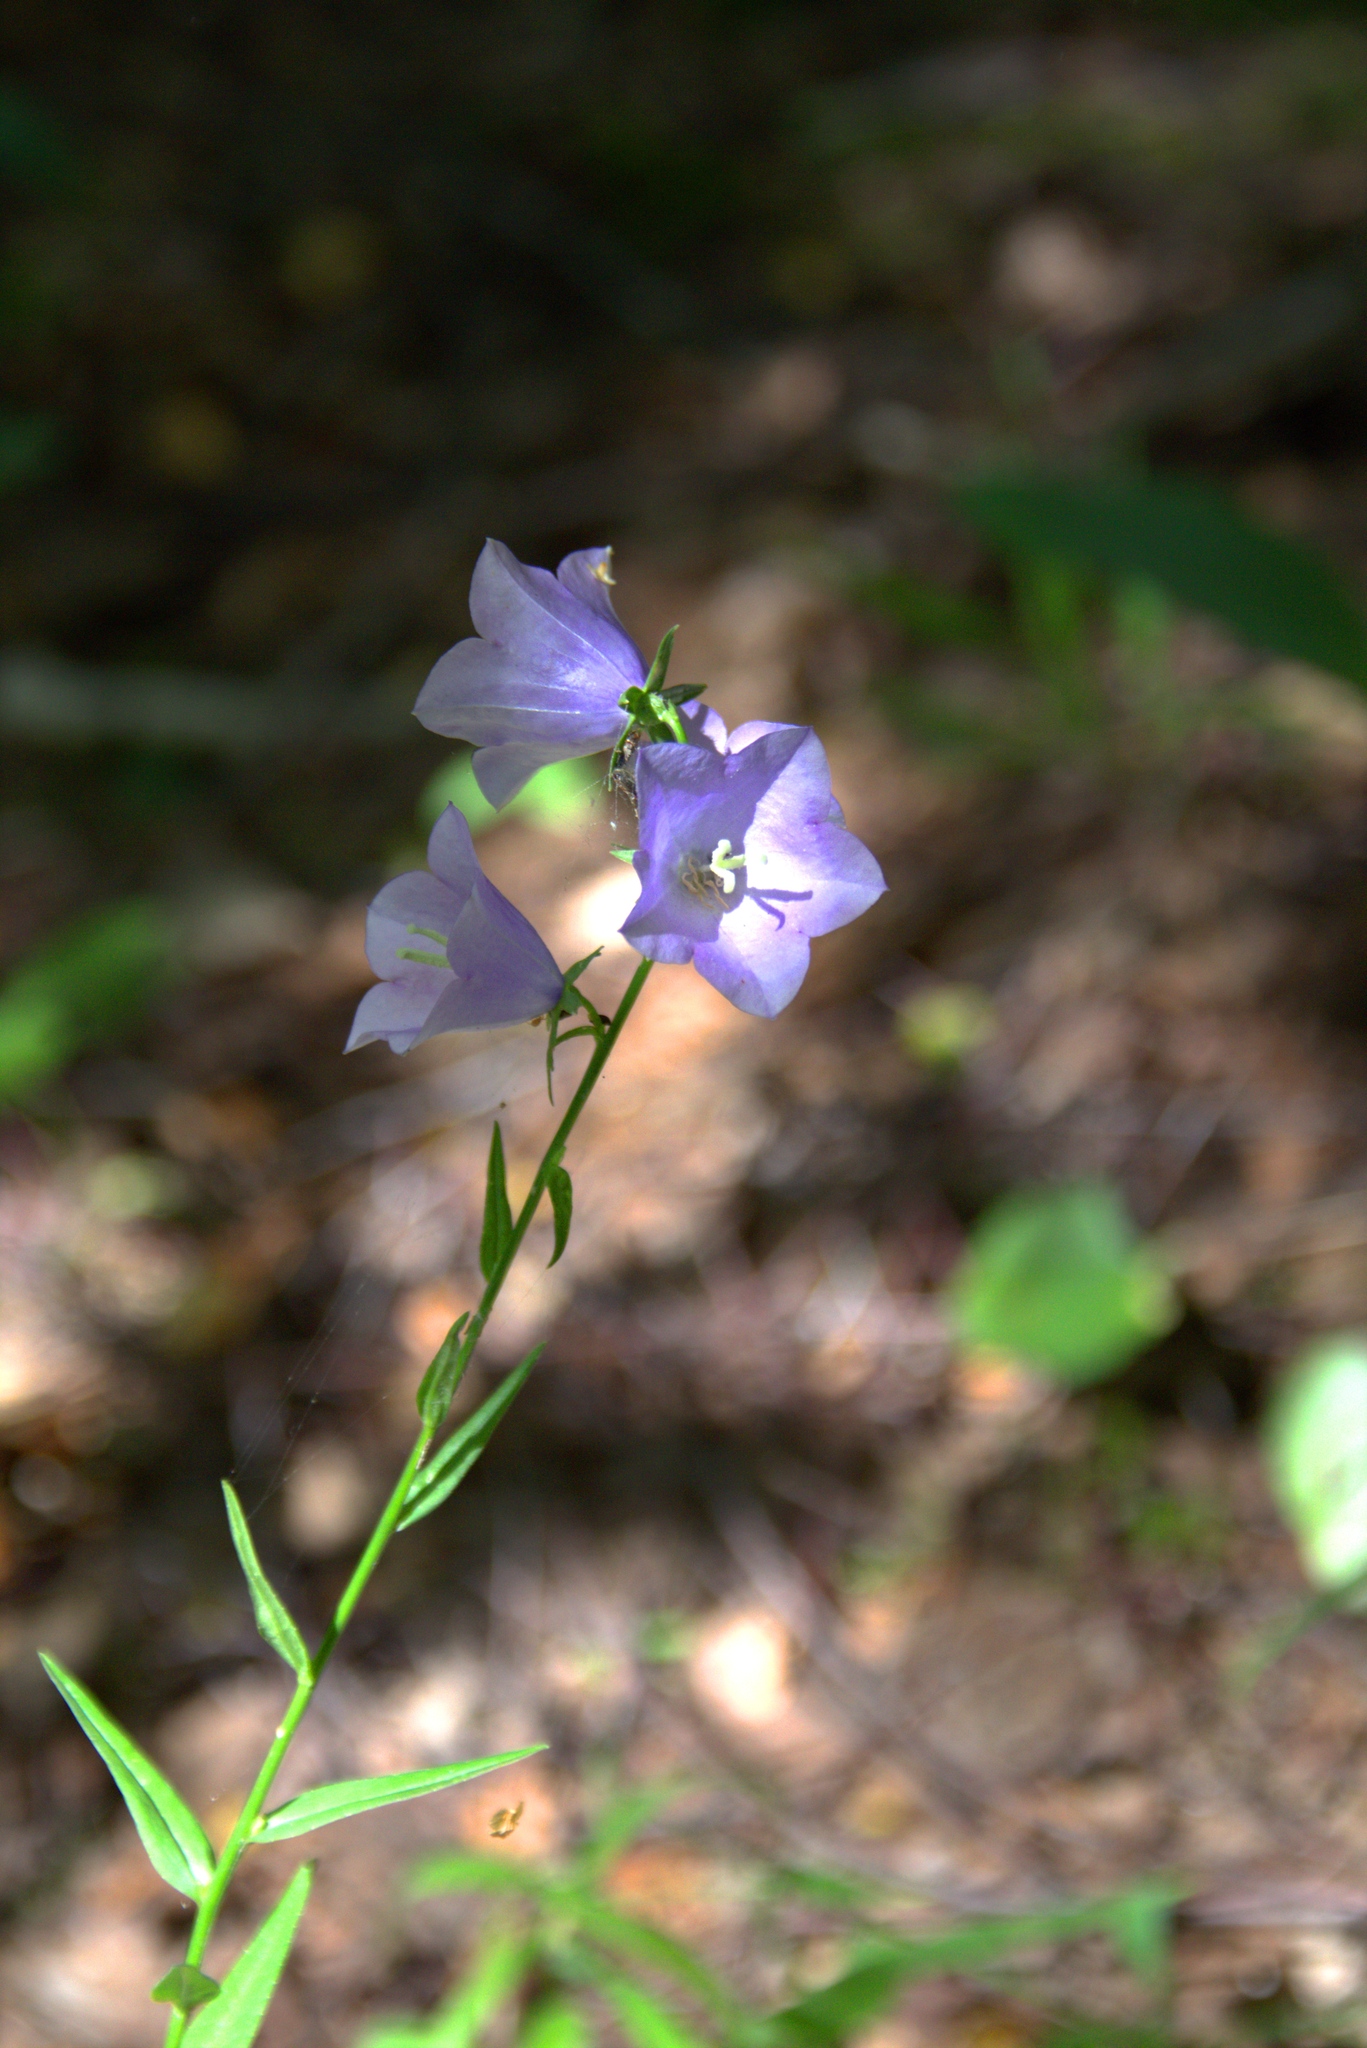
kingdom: Plantae
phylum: Tracheophyta
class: Magnoliopsida
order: Asterales
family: Campanulaceae
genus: Campanula
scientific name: Campanula persicifolia
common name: Peach-leaved bellflower
